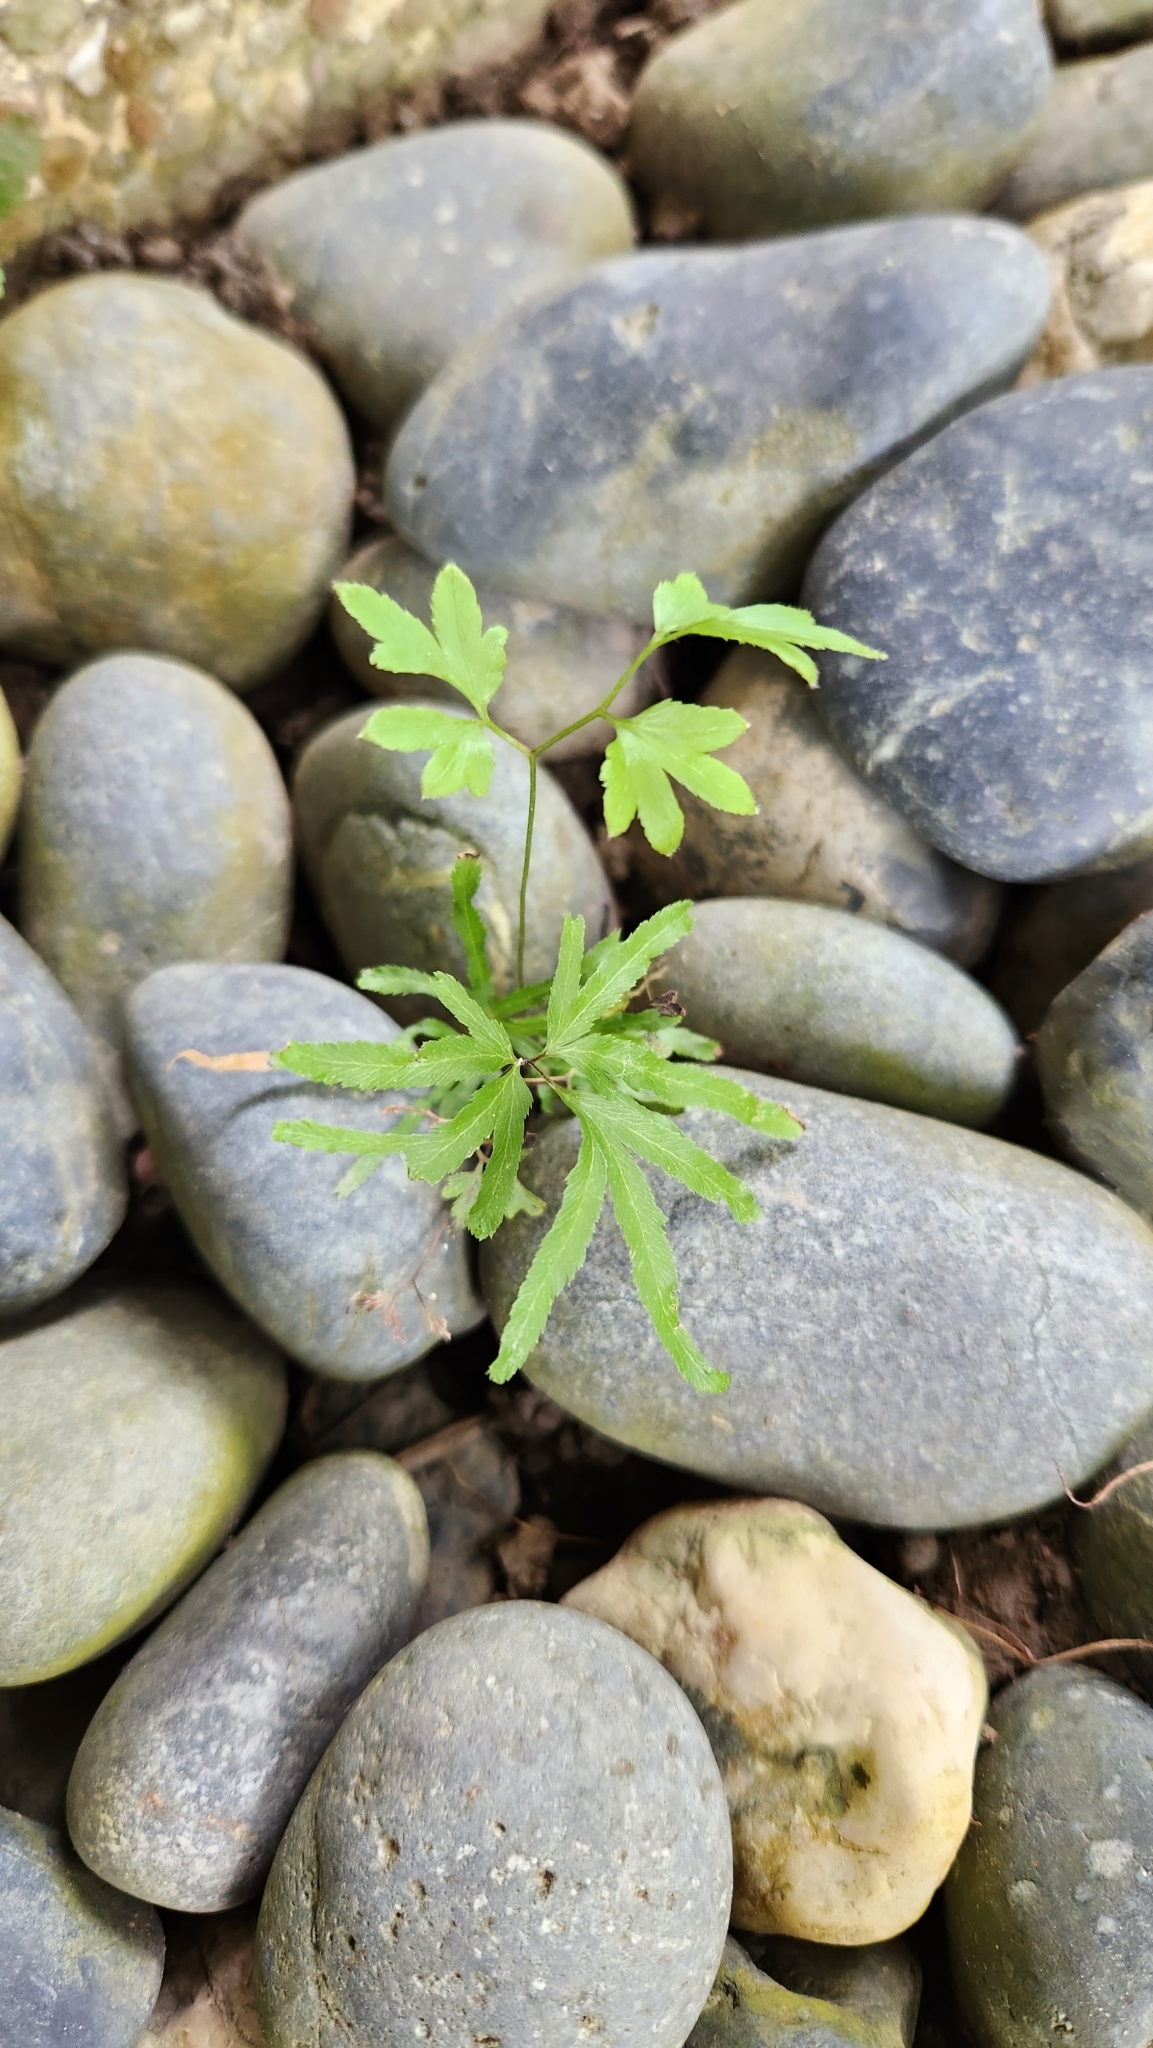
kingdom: Plantae
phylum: Tracheophyta
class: Polypodiopsida
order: Schizaeales
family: Lygodiaceae
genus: Lygodium
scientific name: Lygodium japonicum
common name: Japanese climbing fern
